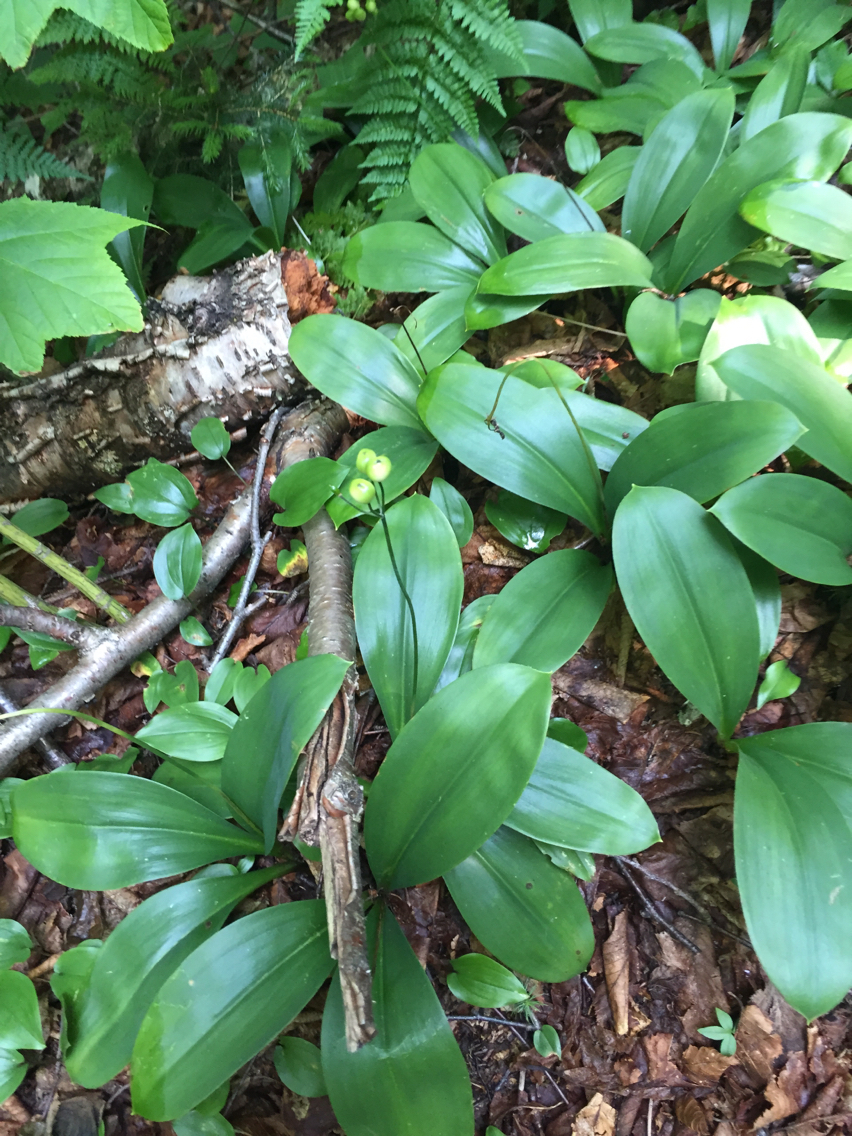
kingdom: Plantae
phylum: Tracheophyta
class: Liliopsida
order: Liliales
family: Liliaceae
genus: Clintonia
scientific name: Clintonia borealis
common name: Yellow clintonia
